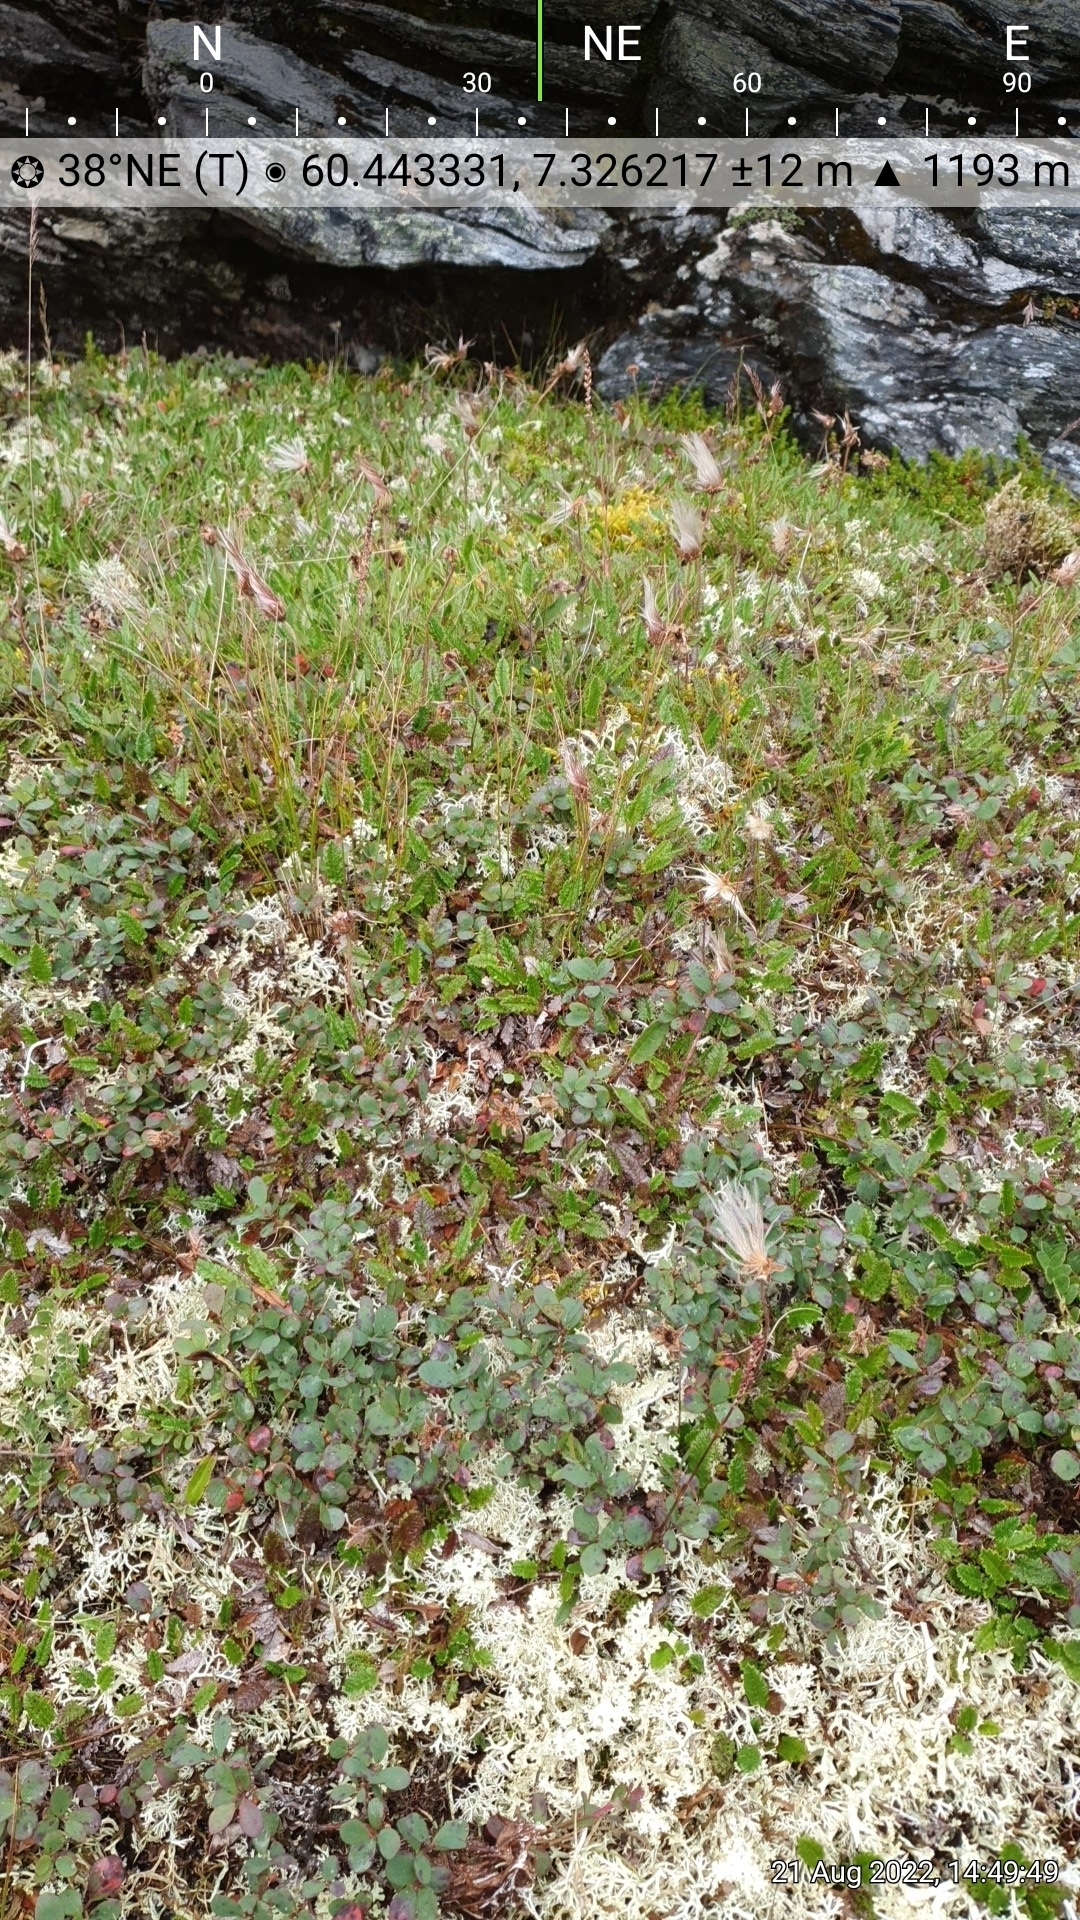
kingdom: Plantae
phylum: Tracheophyta
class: Magnoliopsida
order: Rosales
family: Rosaceae
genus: Dryas
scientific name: Dryas octopetala
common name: Eight-petal mountain-avens
